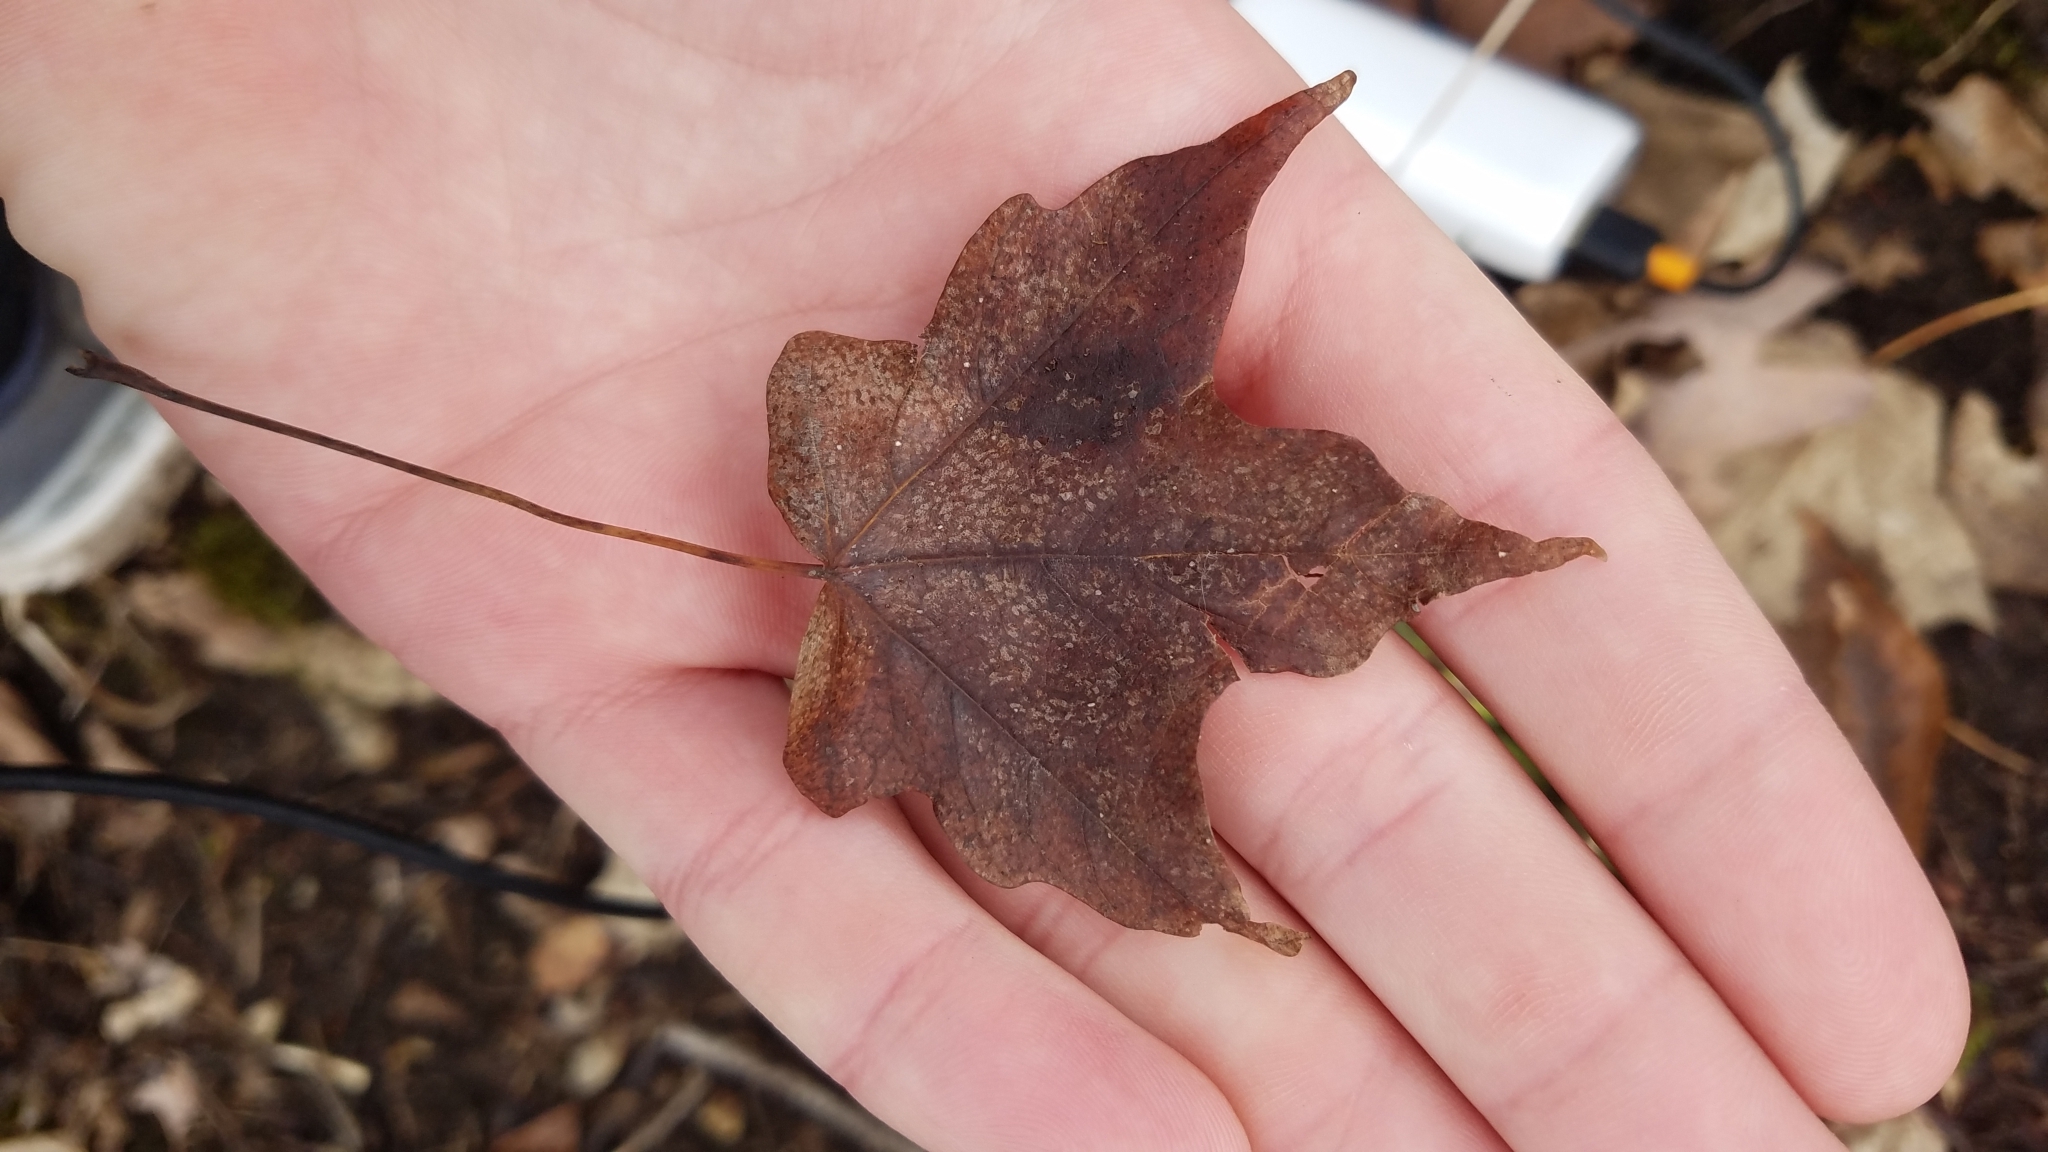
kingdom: Plantae
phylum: Tracheophyta
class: Magnoliopsida
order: Sapindales
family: Sapindaceae
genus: Acer
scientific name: Acer rubrum
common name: Red maple
